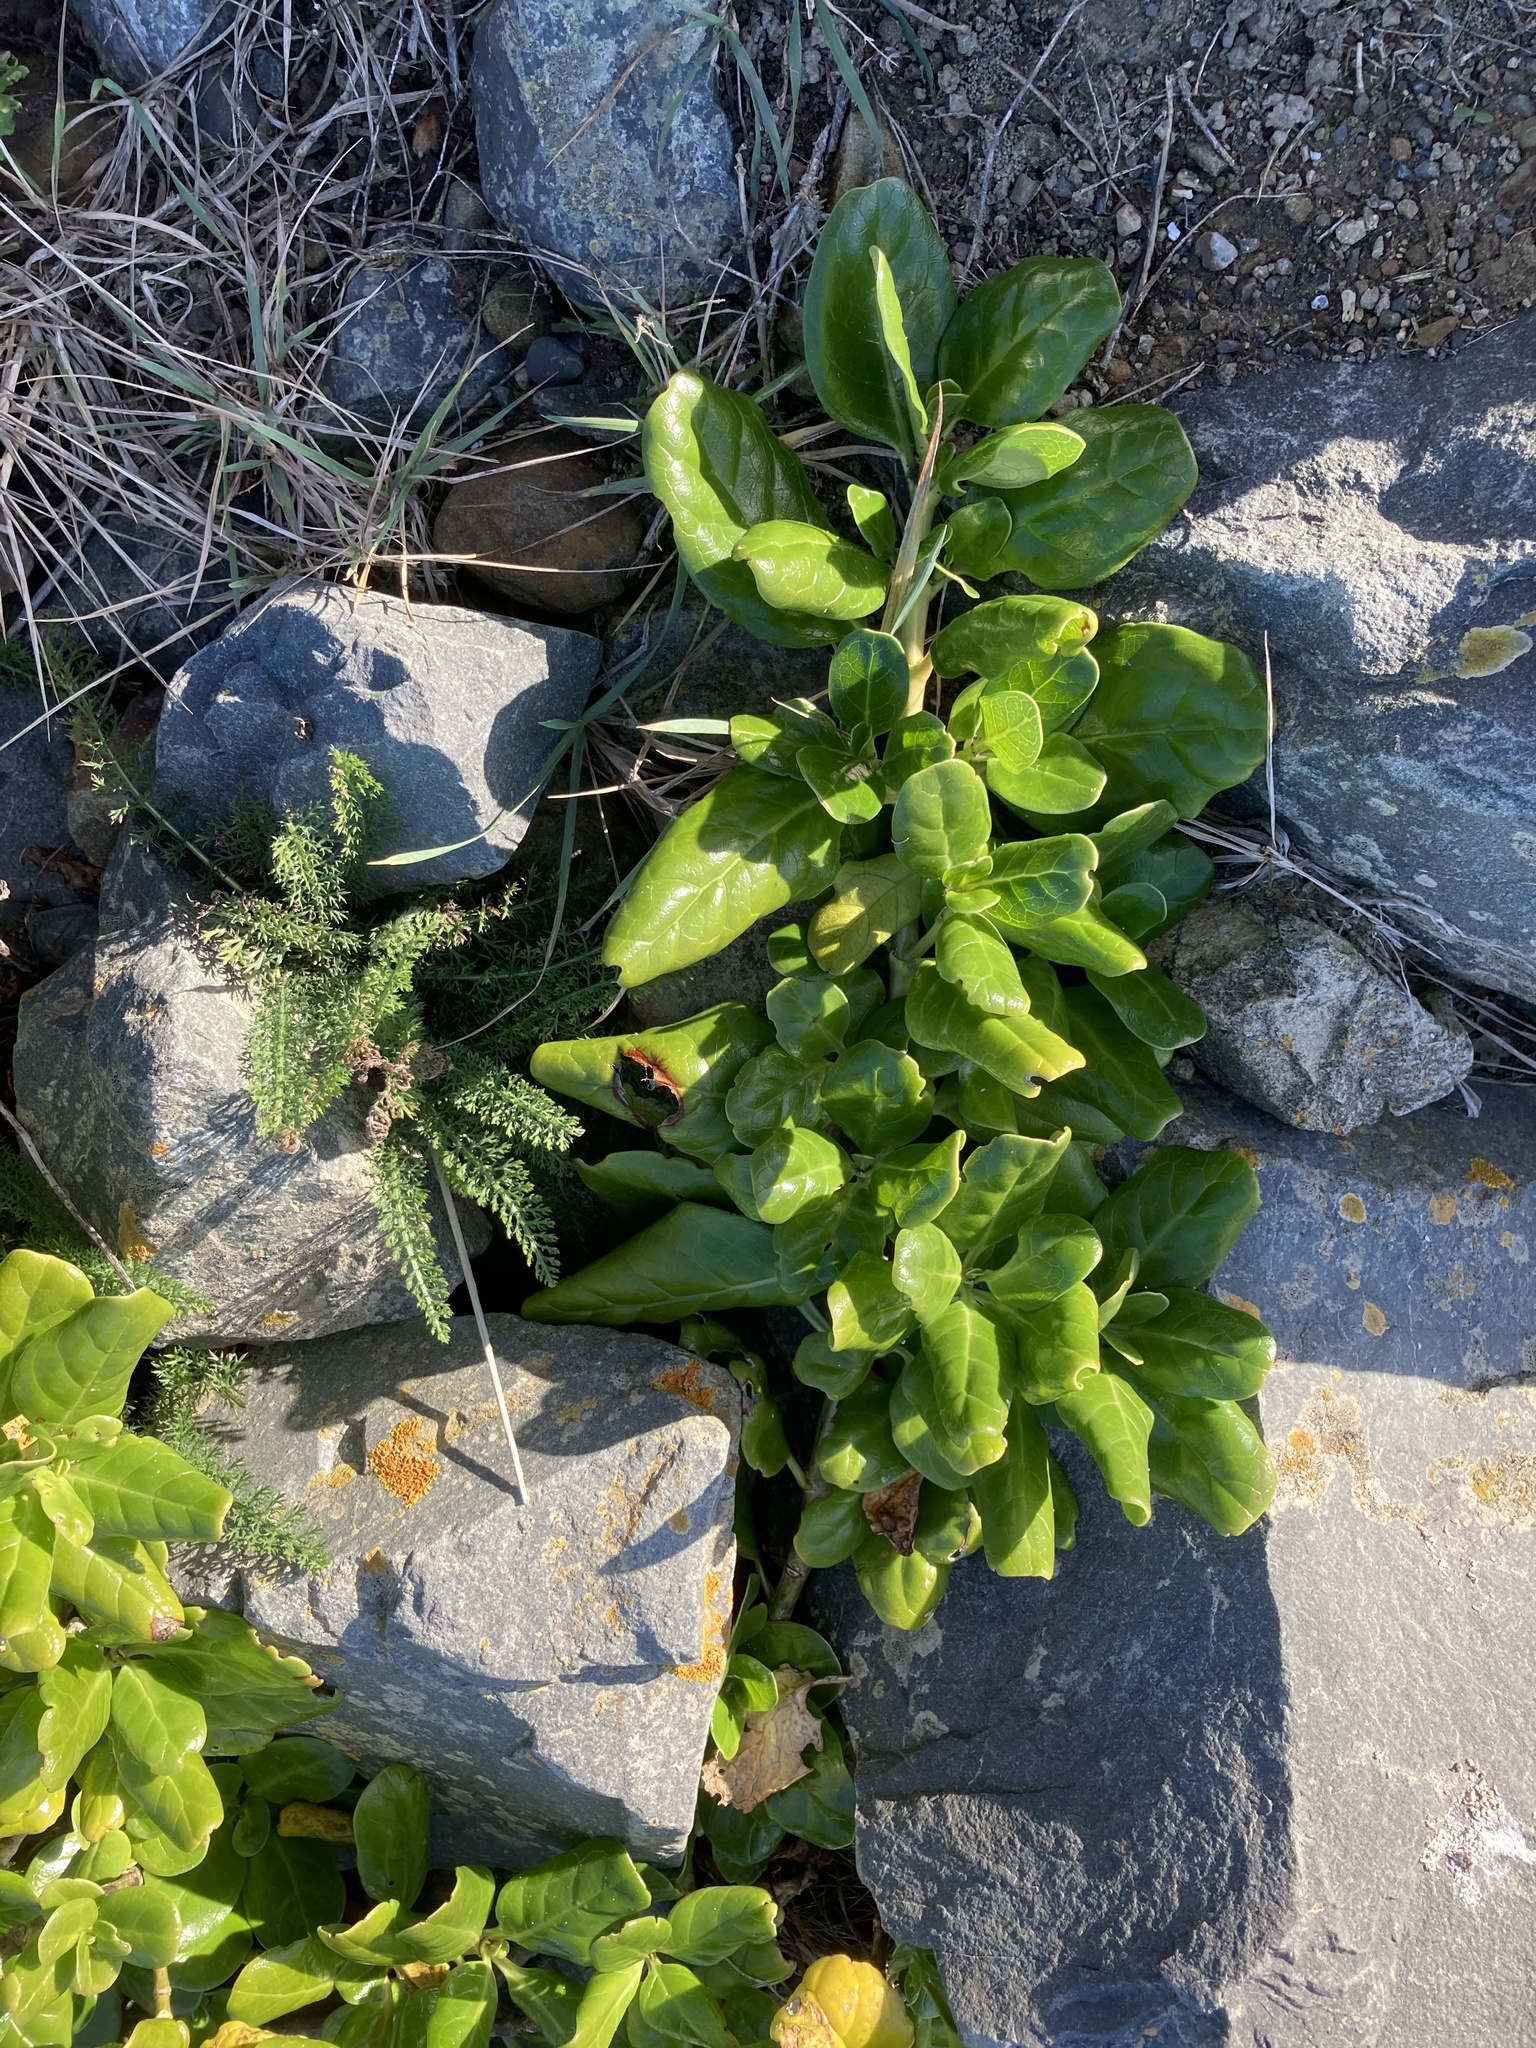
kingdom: Plantae
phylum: Tracheophyta
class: Magnoliopsida
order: Gentianales
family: Rubiaceae
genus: Coprosma
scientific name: Coprosma repens
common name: Tree bedstraw
